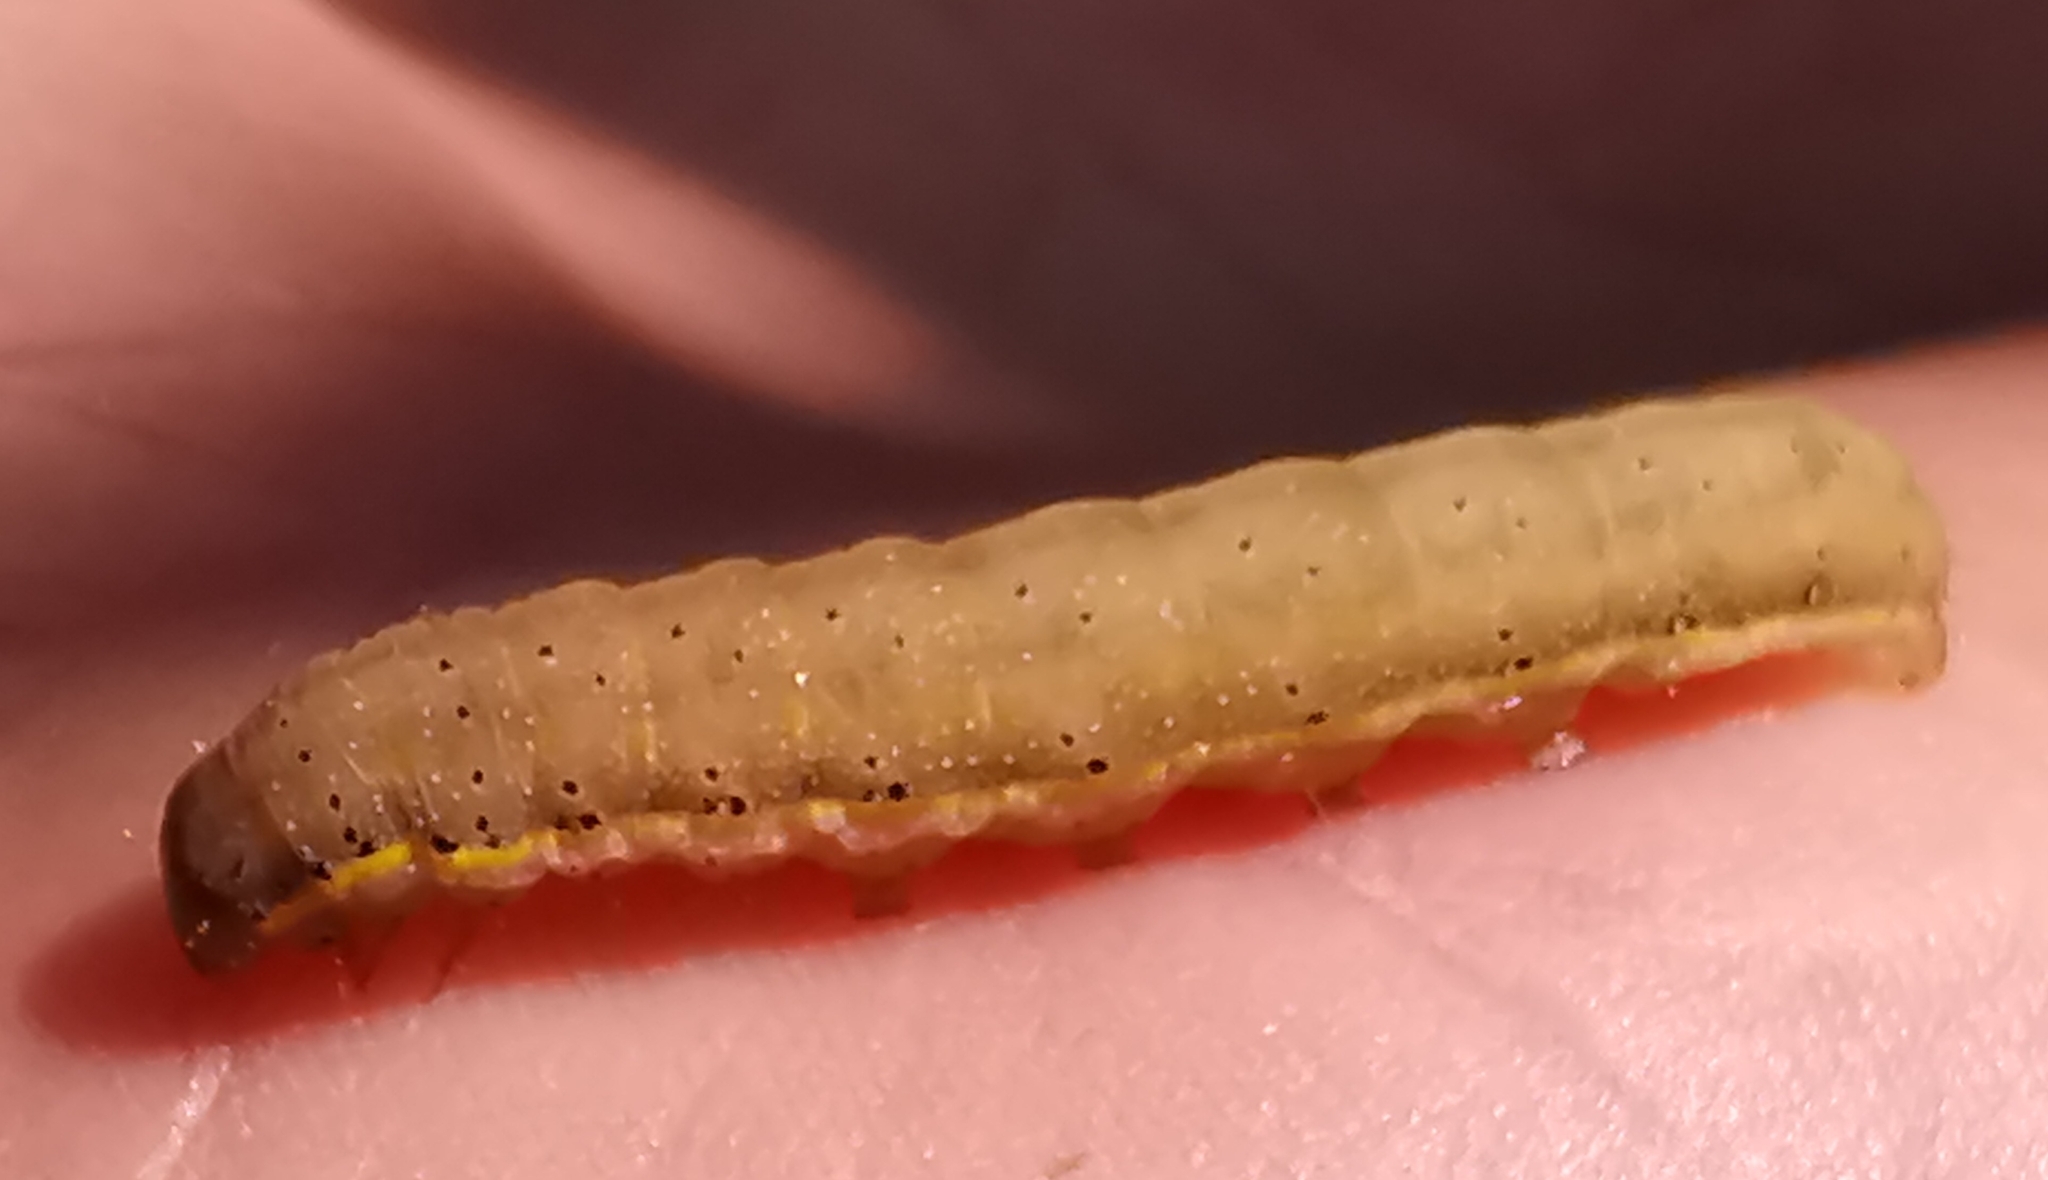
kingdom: Animalia
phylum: Arthropoda
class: Insecta
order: Lepidoptera
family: Noctuidae
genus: Lacanobia
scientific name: Lacanobia oleracea
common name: Bright-line brown-eye
